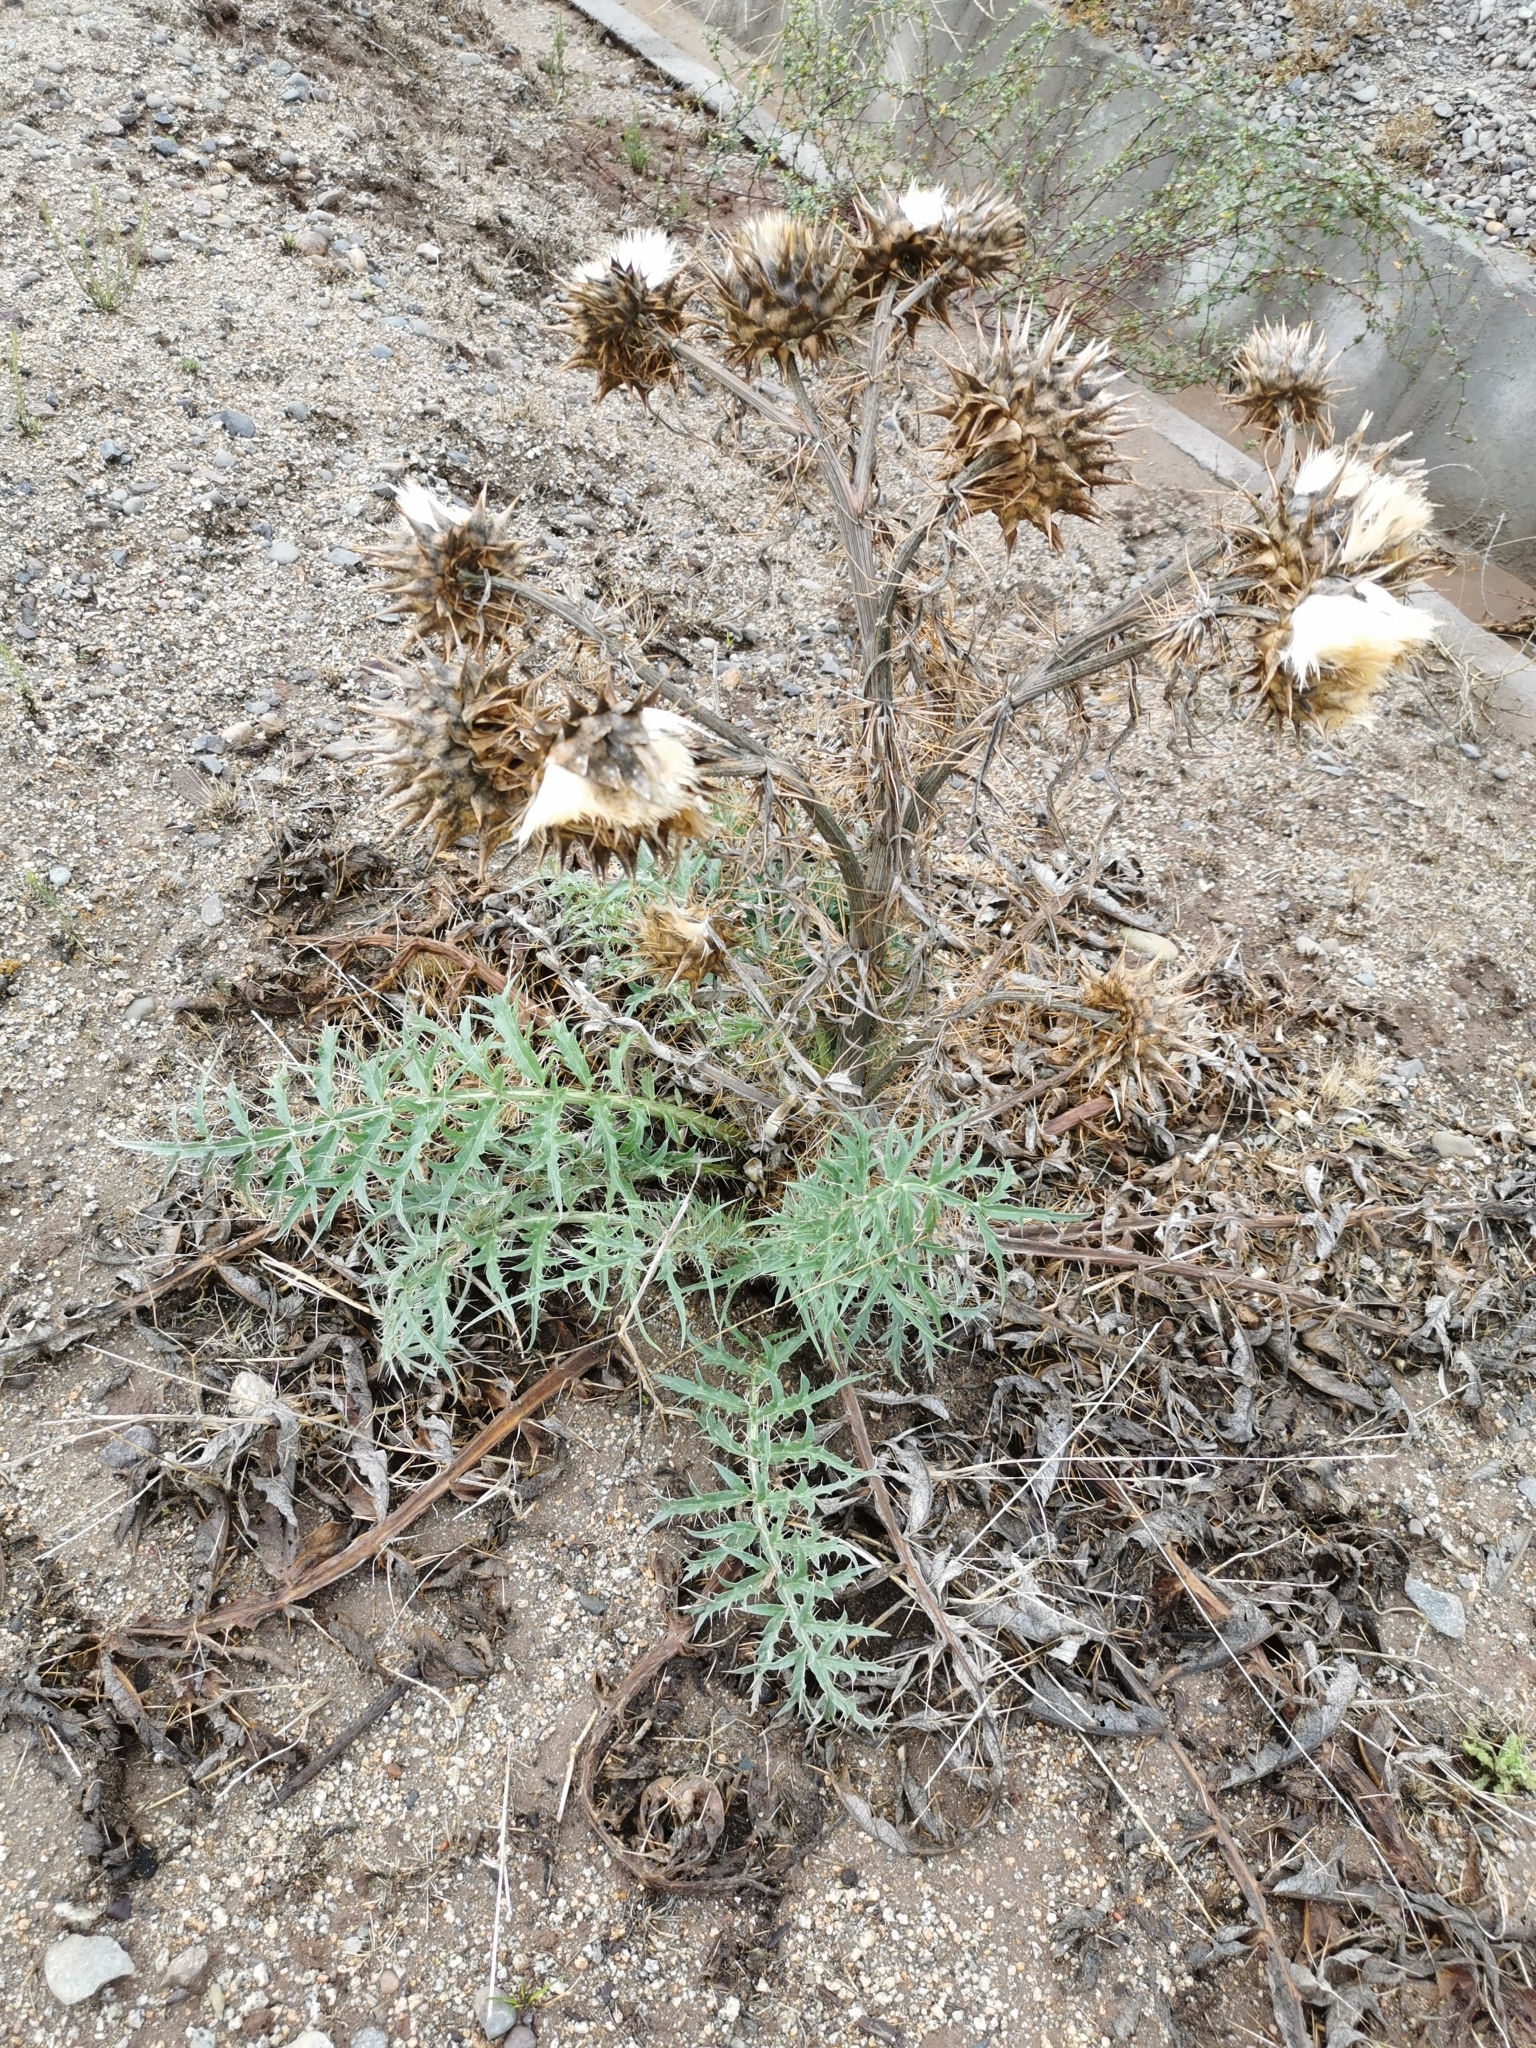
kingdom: Plantae
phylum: Tracheophyta
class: Magnoliopsida
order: Asterales
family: Asteraceae
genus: Cynara
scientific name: Cynara cardunculus
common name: Globe artichoke
